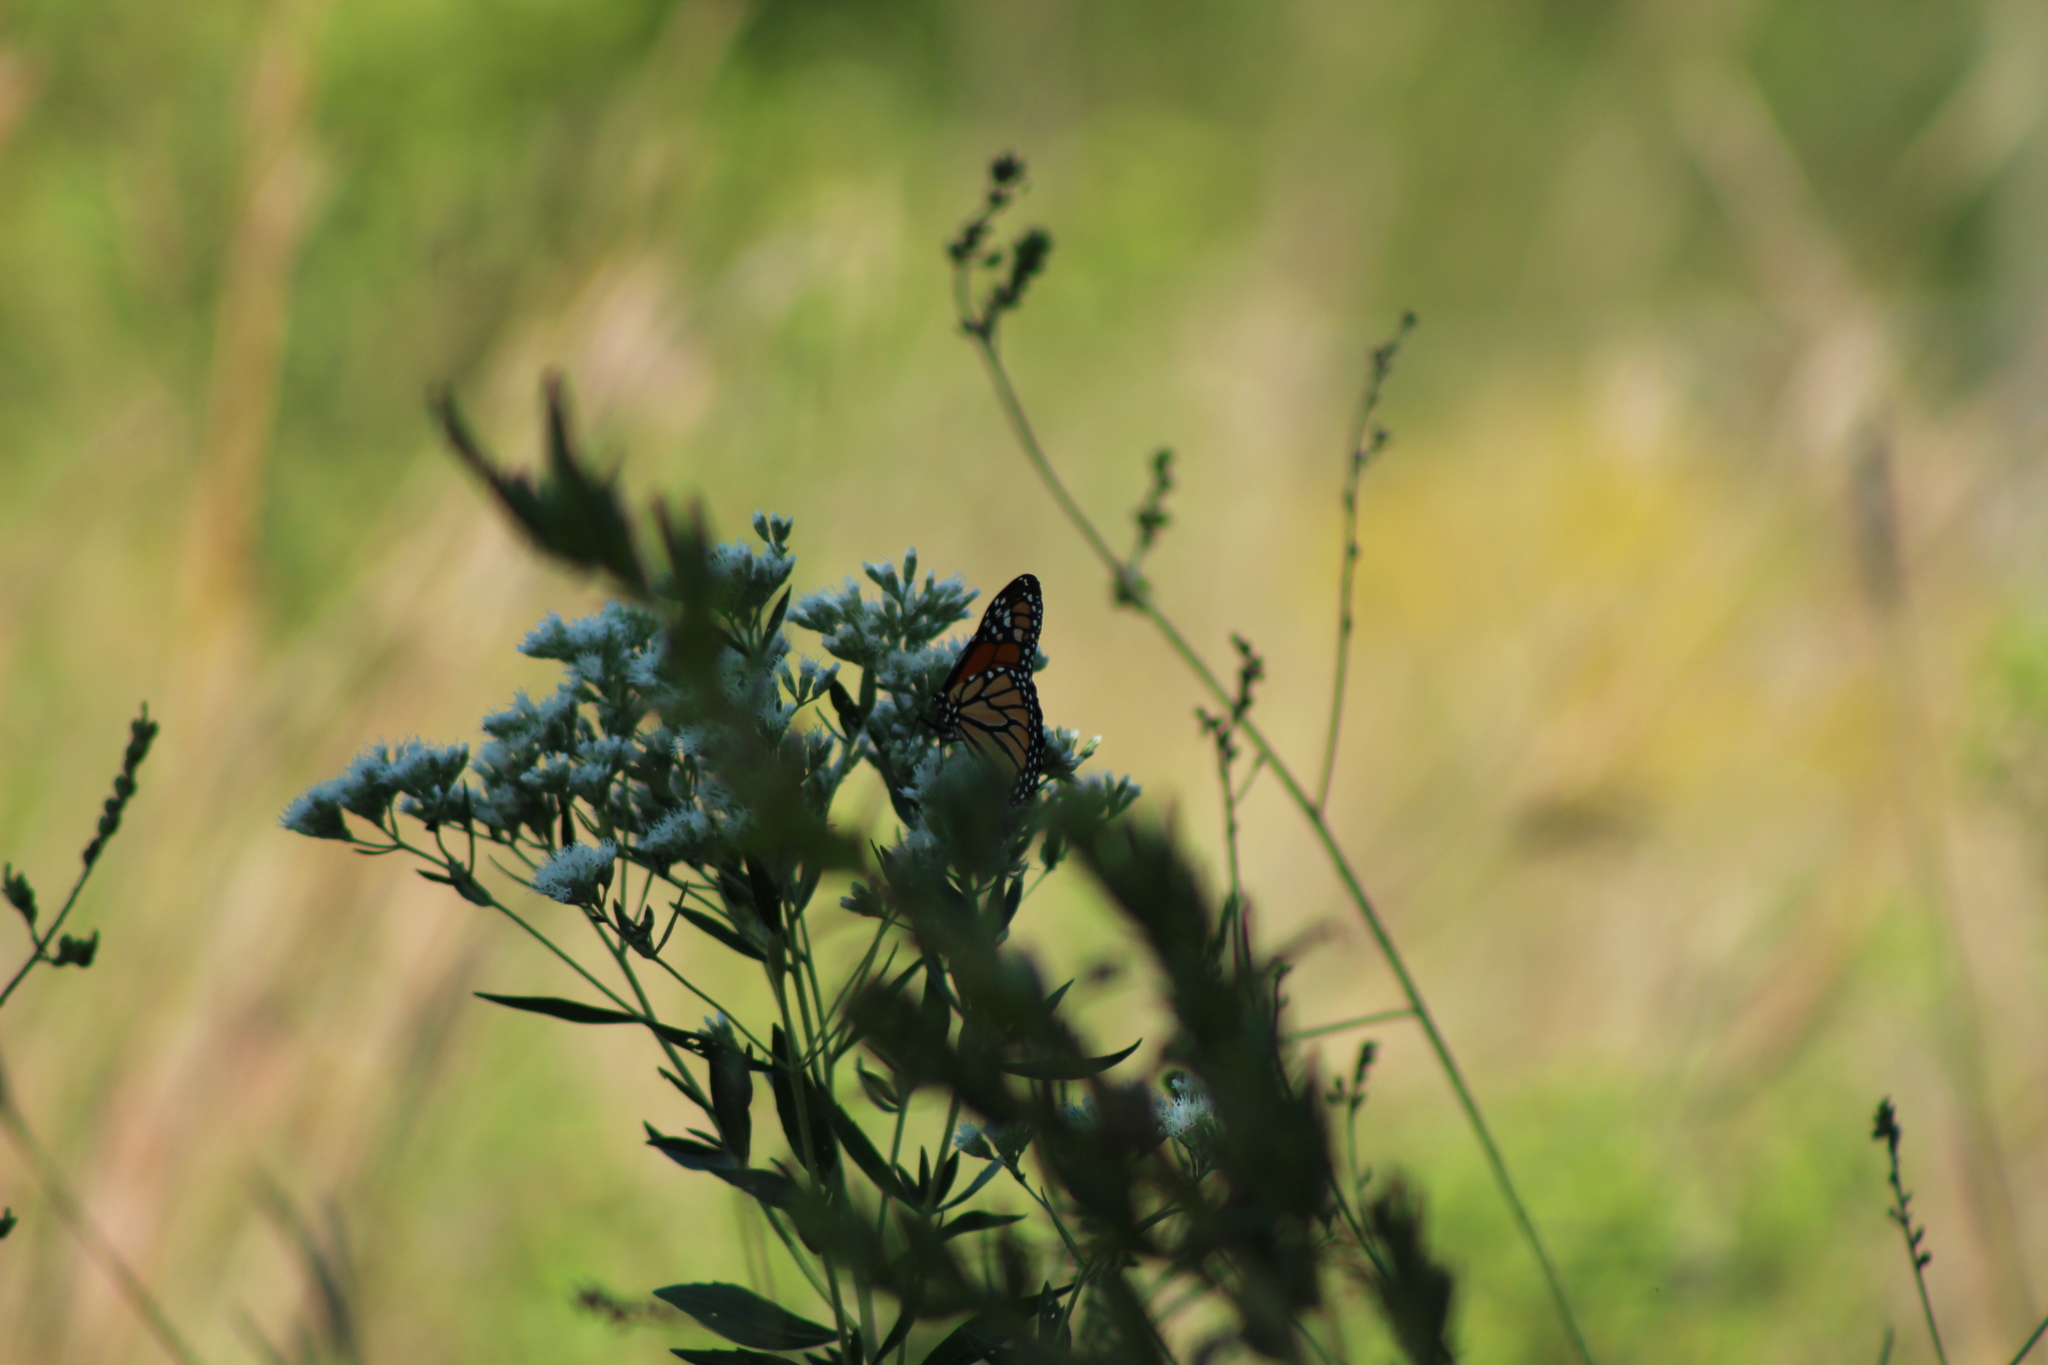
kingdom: Animalia
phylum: Arthropoda
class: Insecta
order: Lepidoptera
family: Nymphalidae
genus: Danaus
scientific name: Danaus plexippus
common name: Monarch
